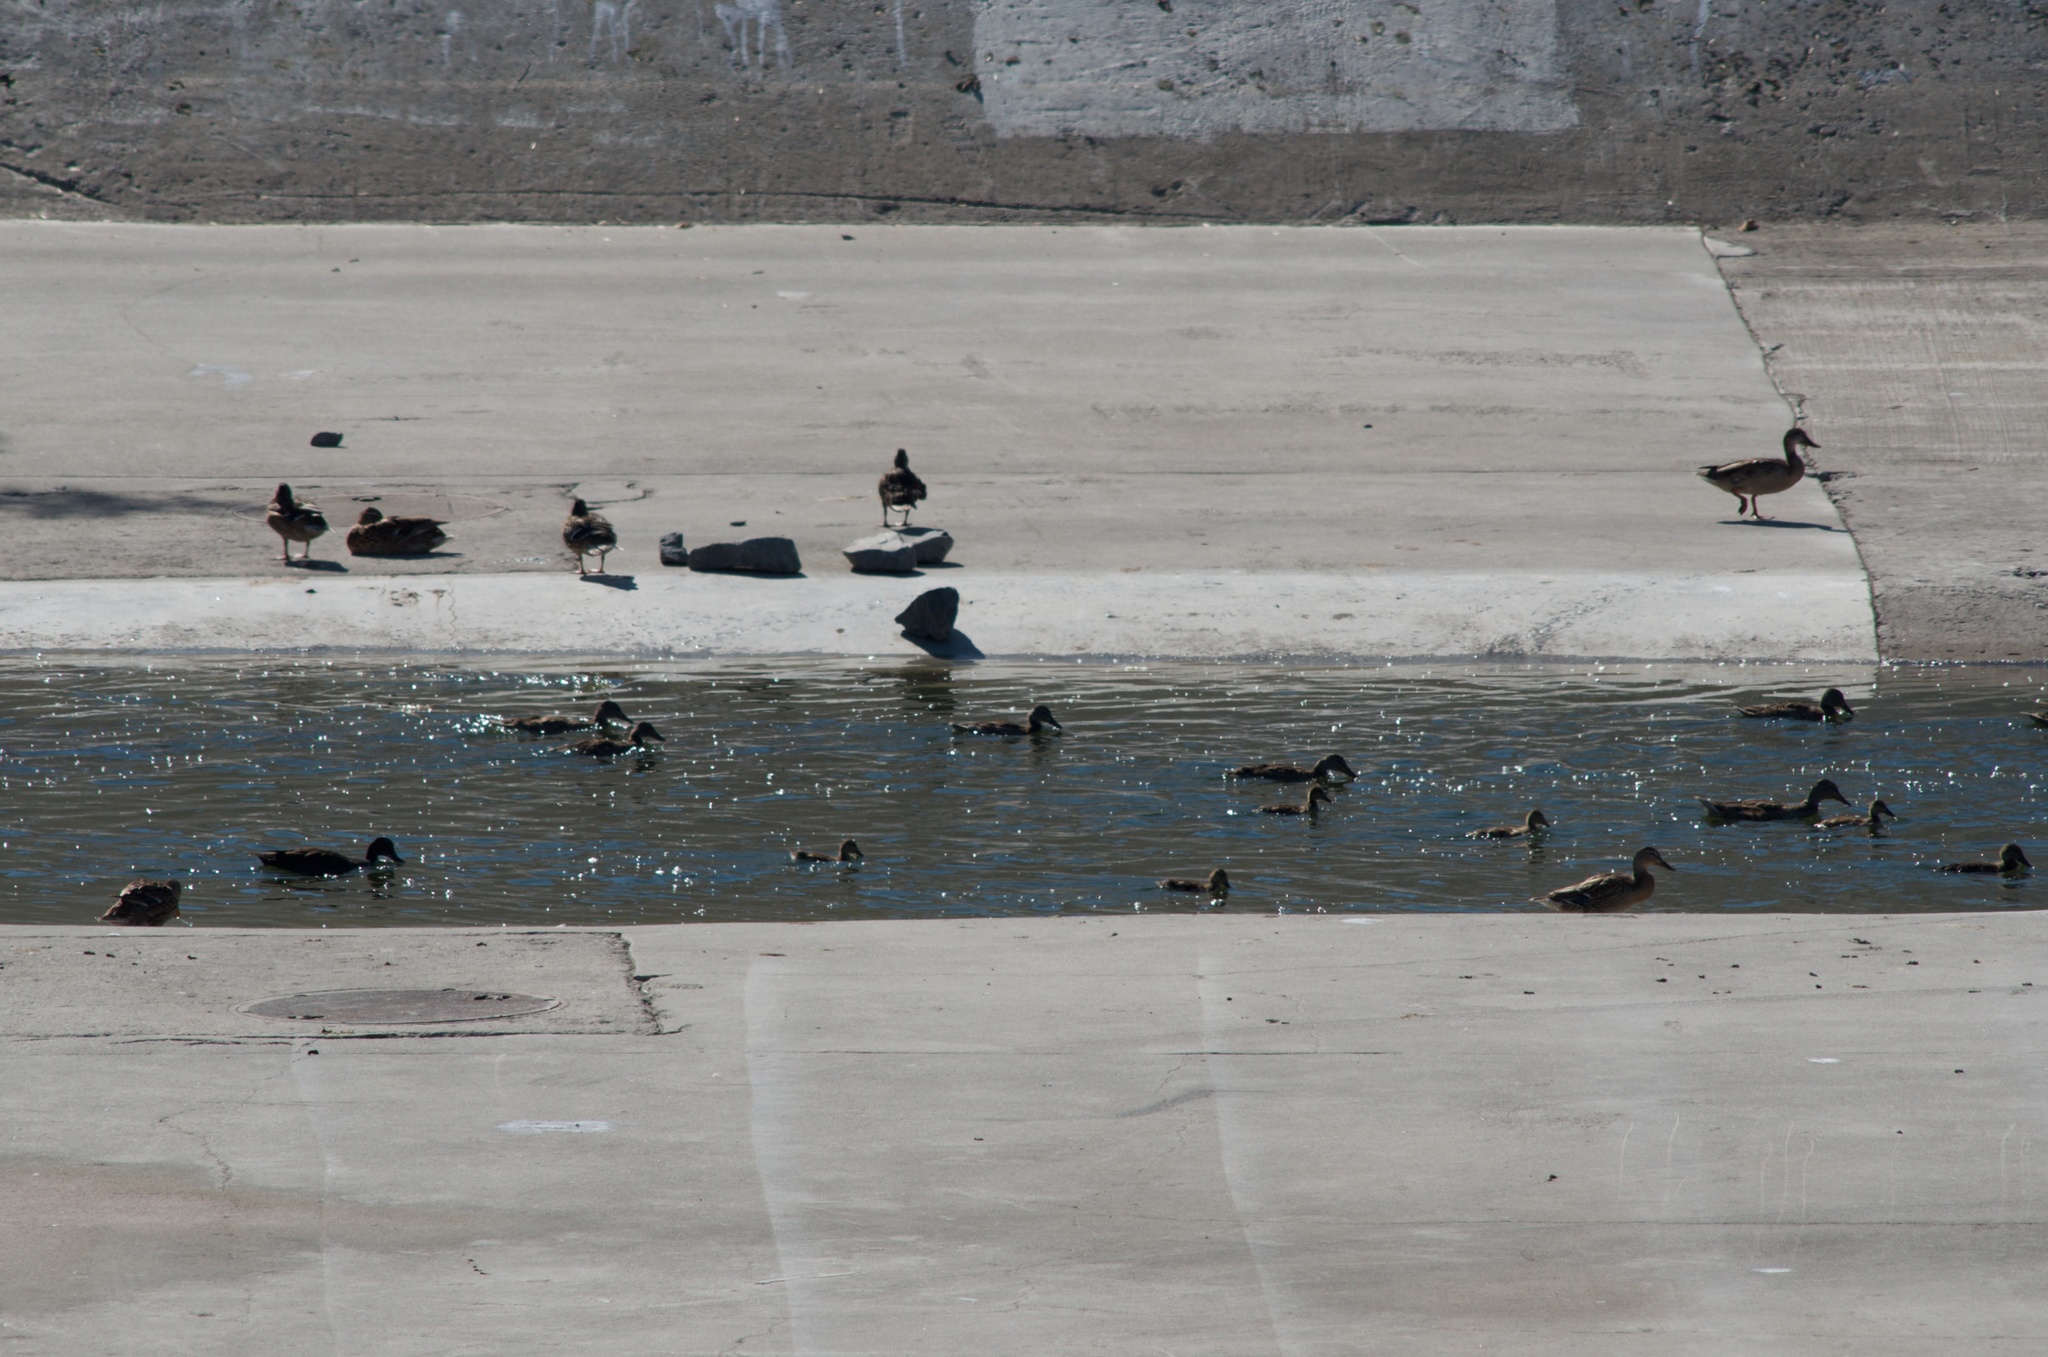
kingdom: Animalia
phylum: Chordata
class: Aves
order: Anseriformes
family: Anatidae
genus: Anas
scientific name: Anas platyrhynchos
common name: Mallard
